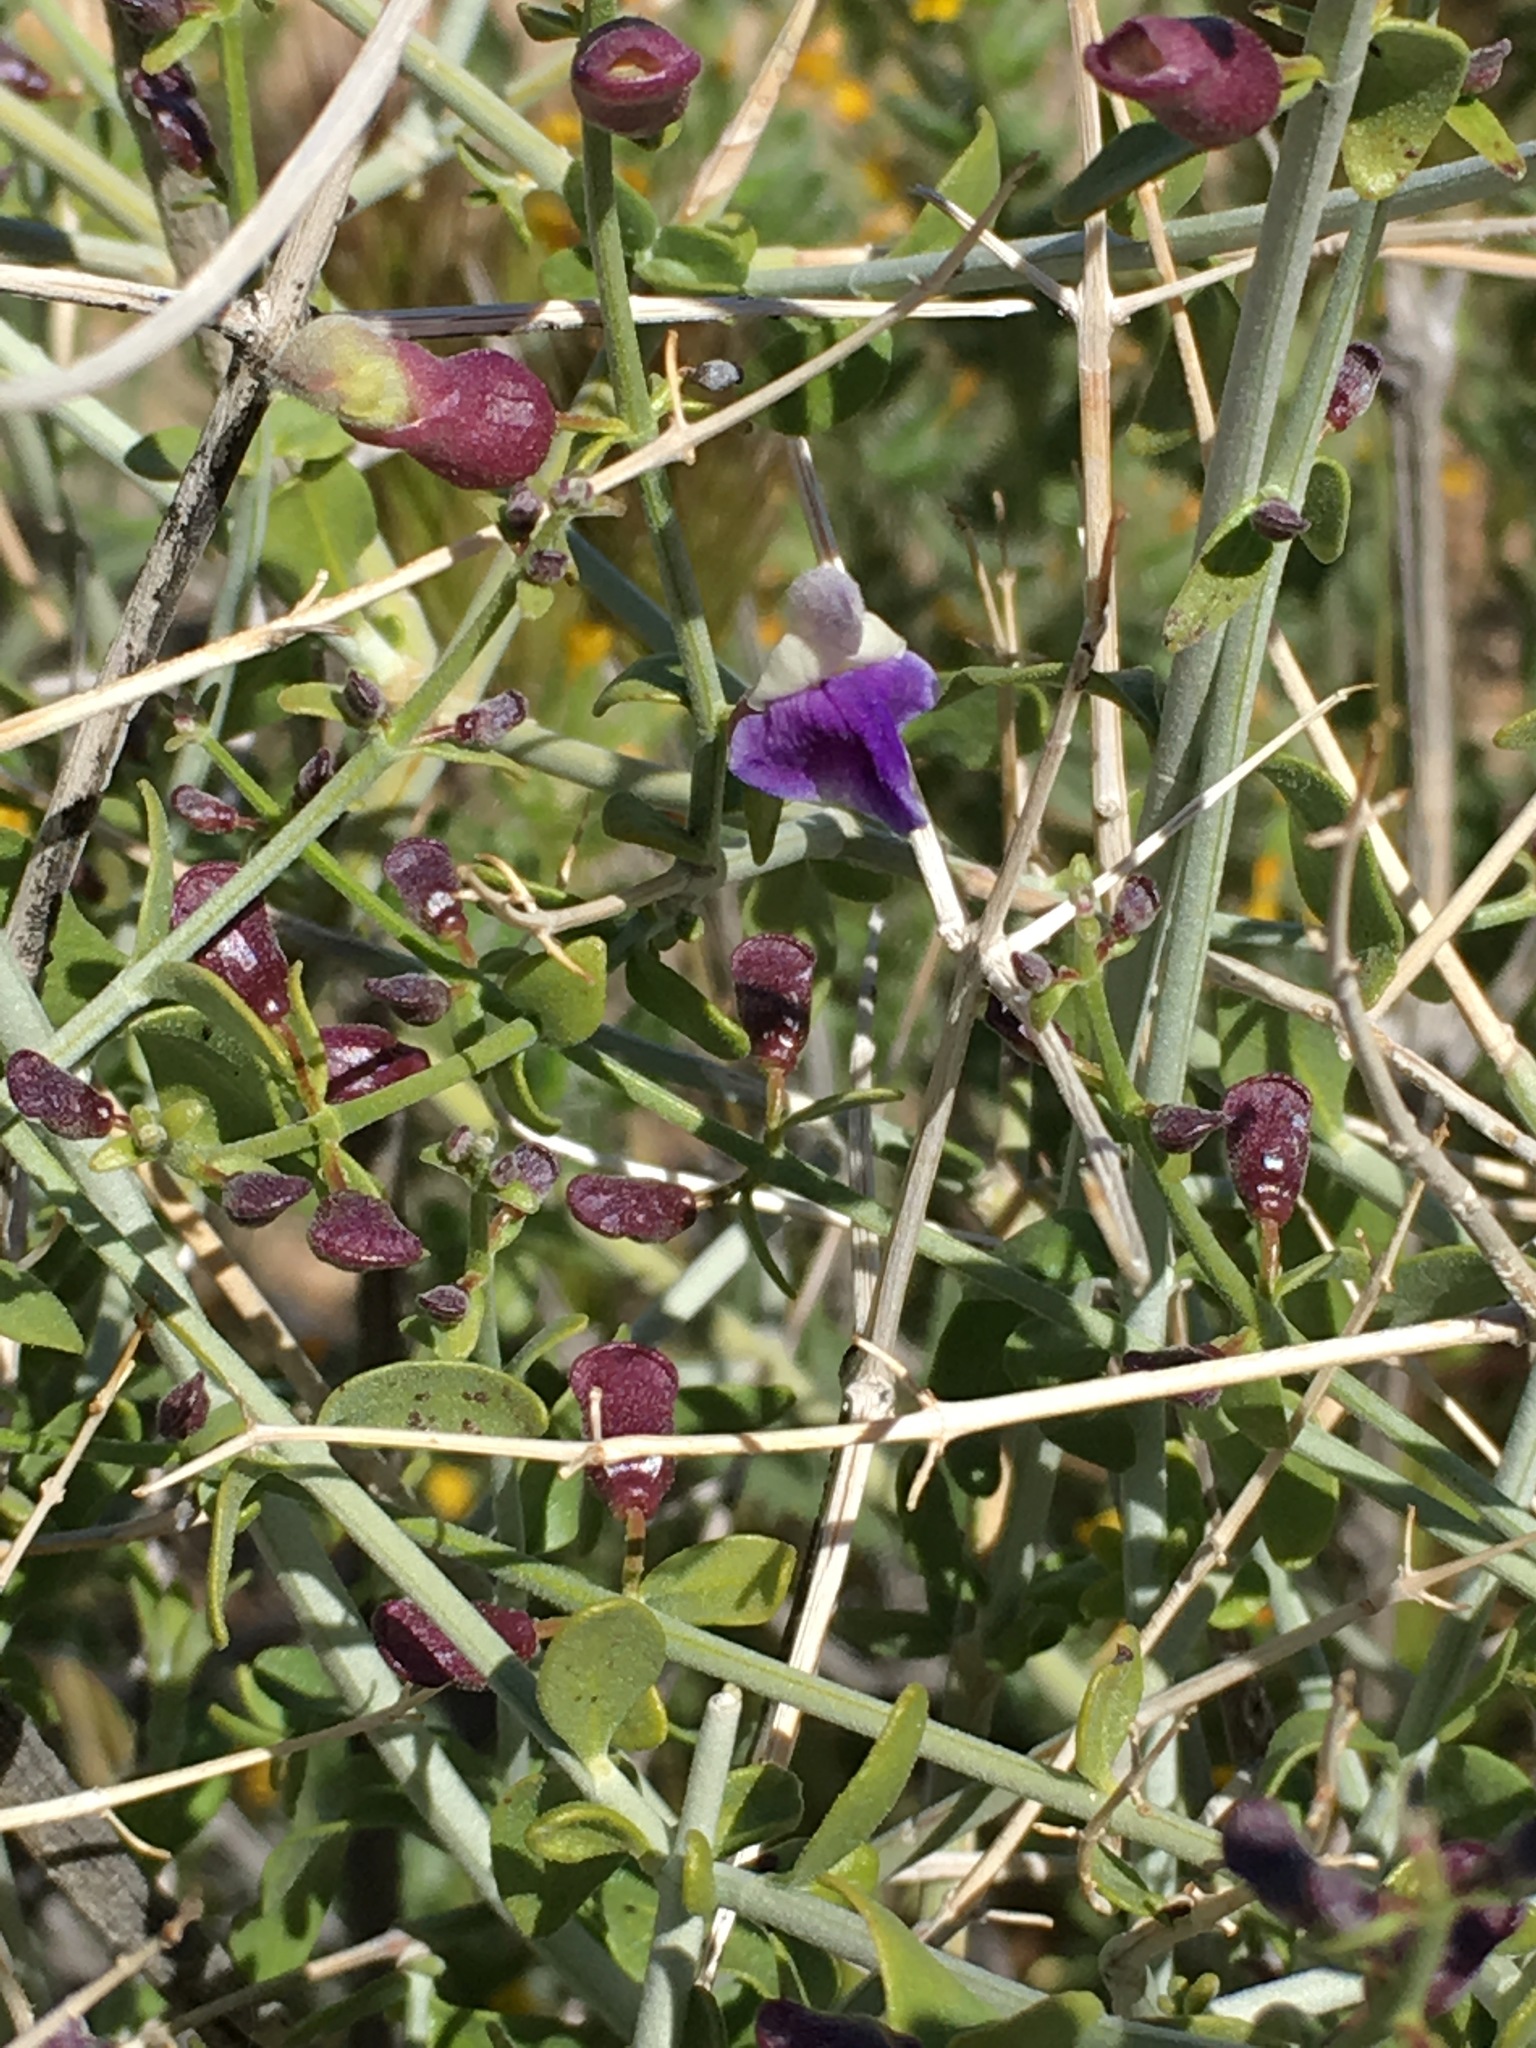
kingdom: Plantae
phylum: Tracheophyta
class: Magnoliopsida
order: Lamiales
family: Lamiaceae
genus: Scutellaria
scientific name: Scutellaria mexicana
